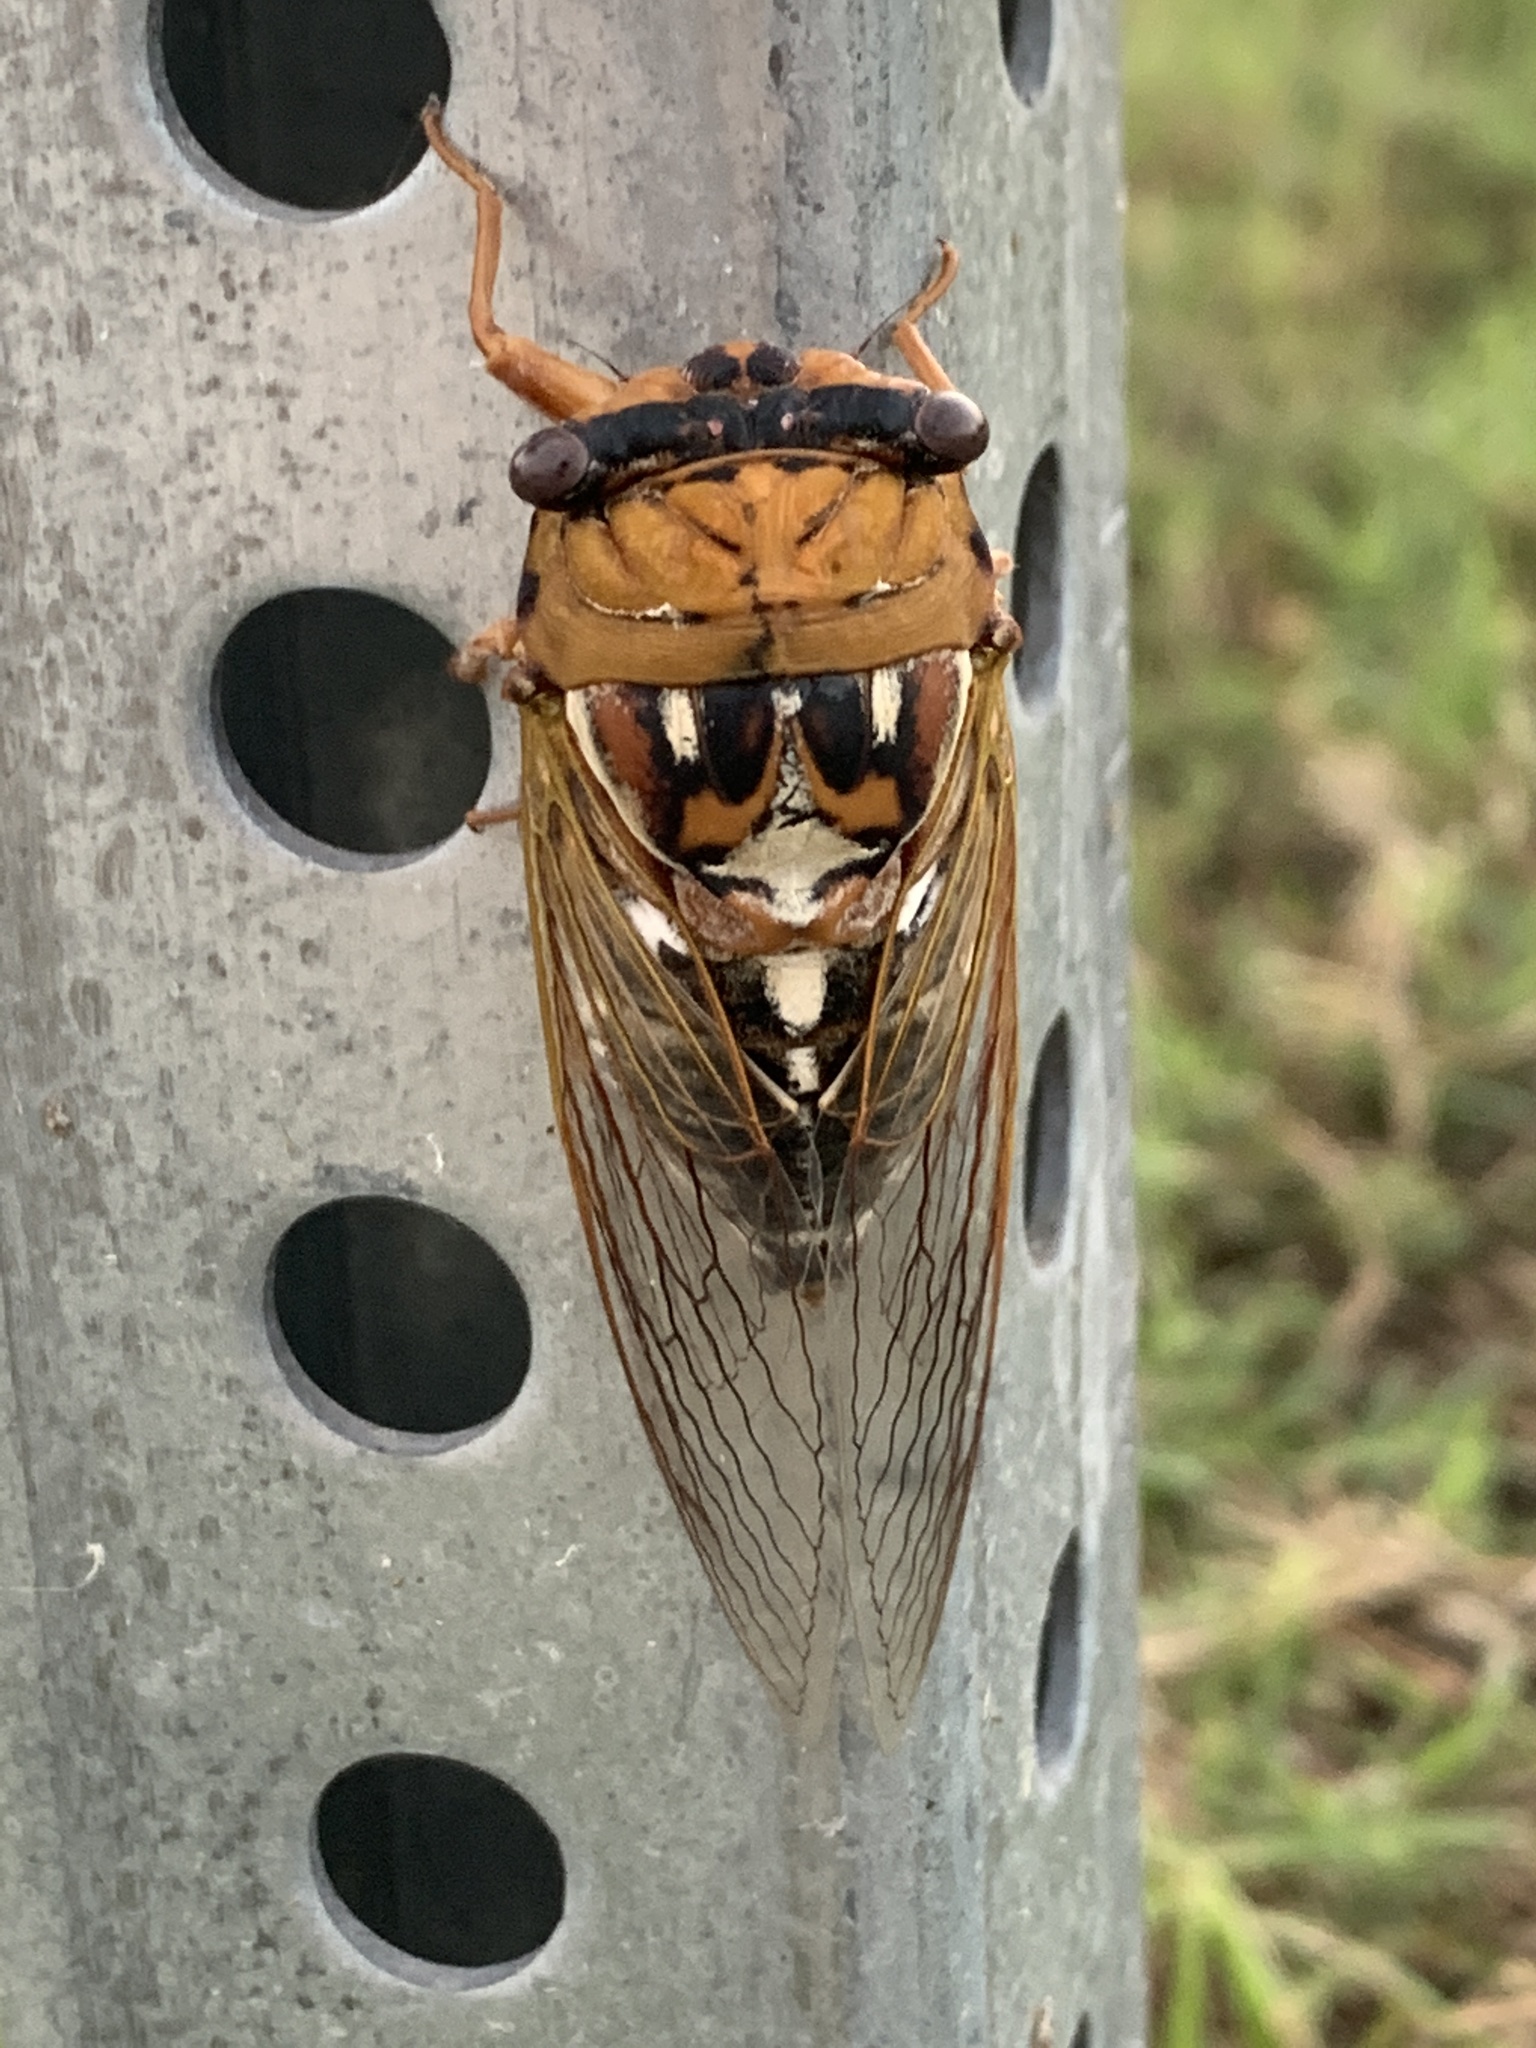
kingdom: Animalia
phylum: Arthropoda
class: Insecta
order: Hemiptera
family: Cicadidae
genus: Megatibicen
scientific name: Megatibicen dealbatus
